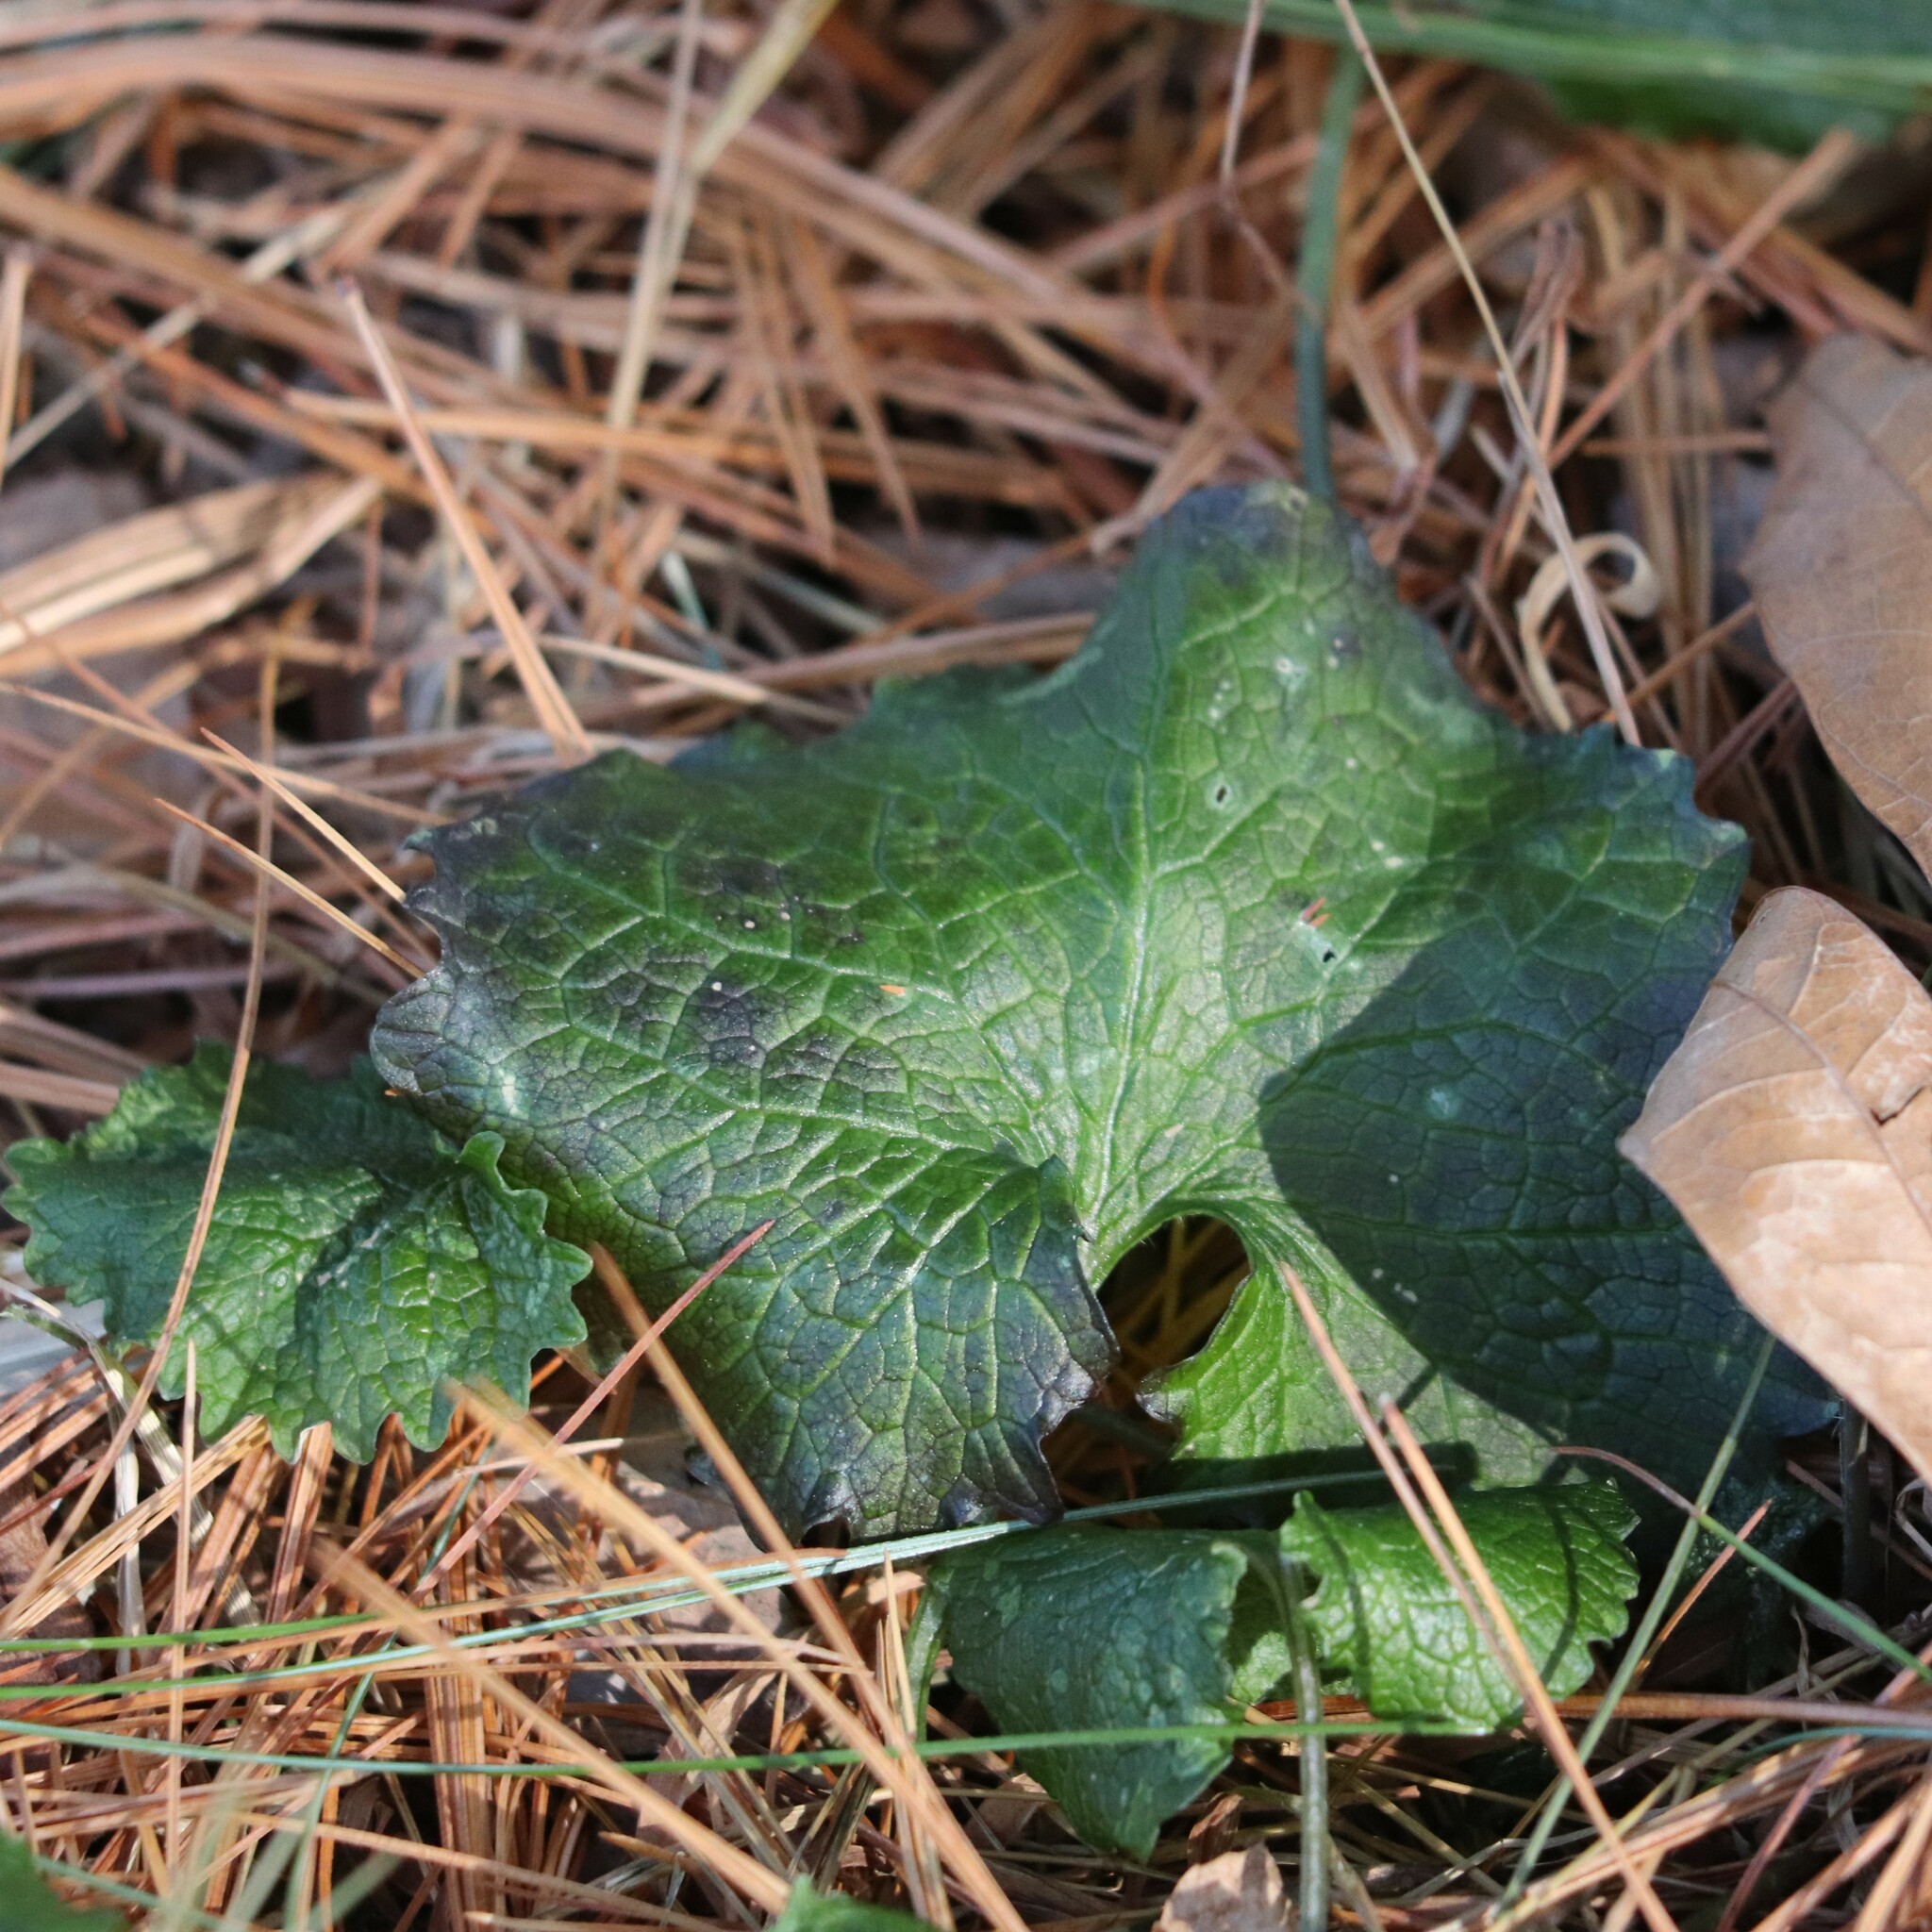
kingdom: Plantae
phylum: Tracheophyta
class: Magnoliopsida
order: Brassicales
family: Brassicaceae
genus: Alliaria
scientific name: Alliaria petiolata
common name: Garlic mustard
